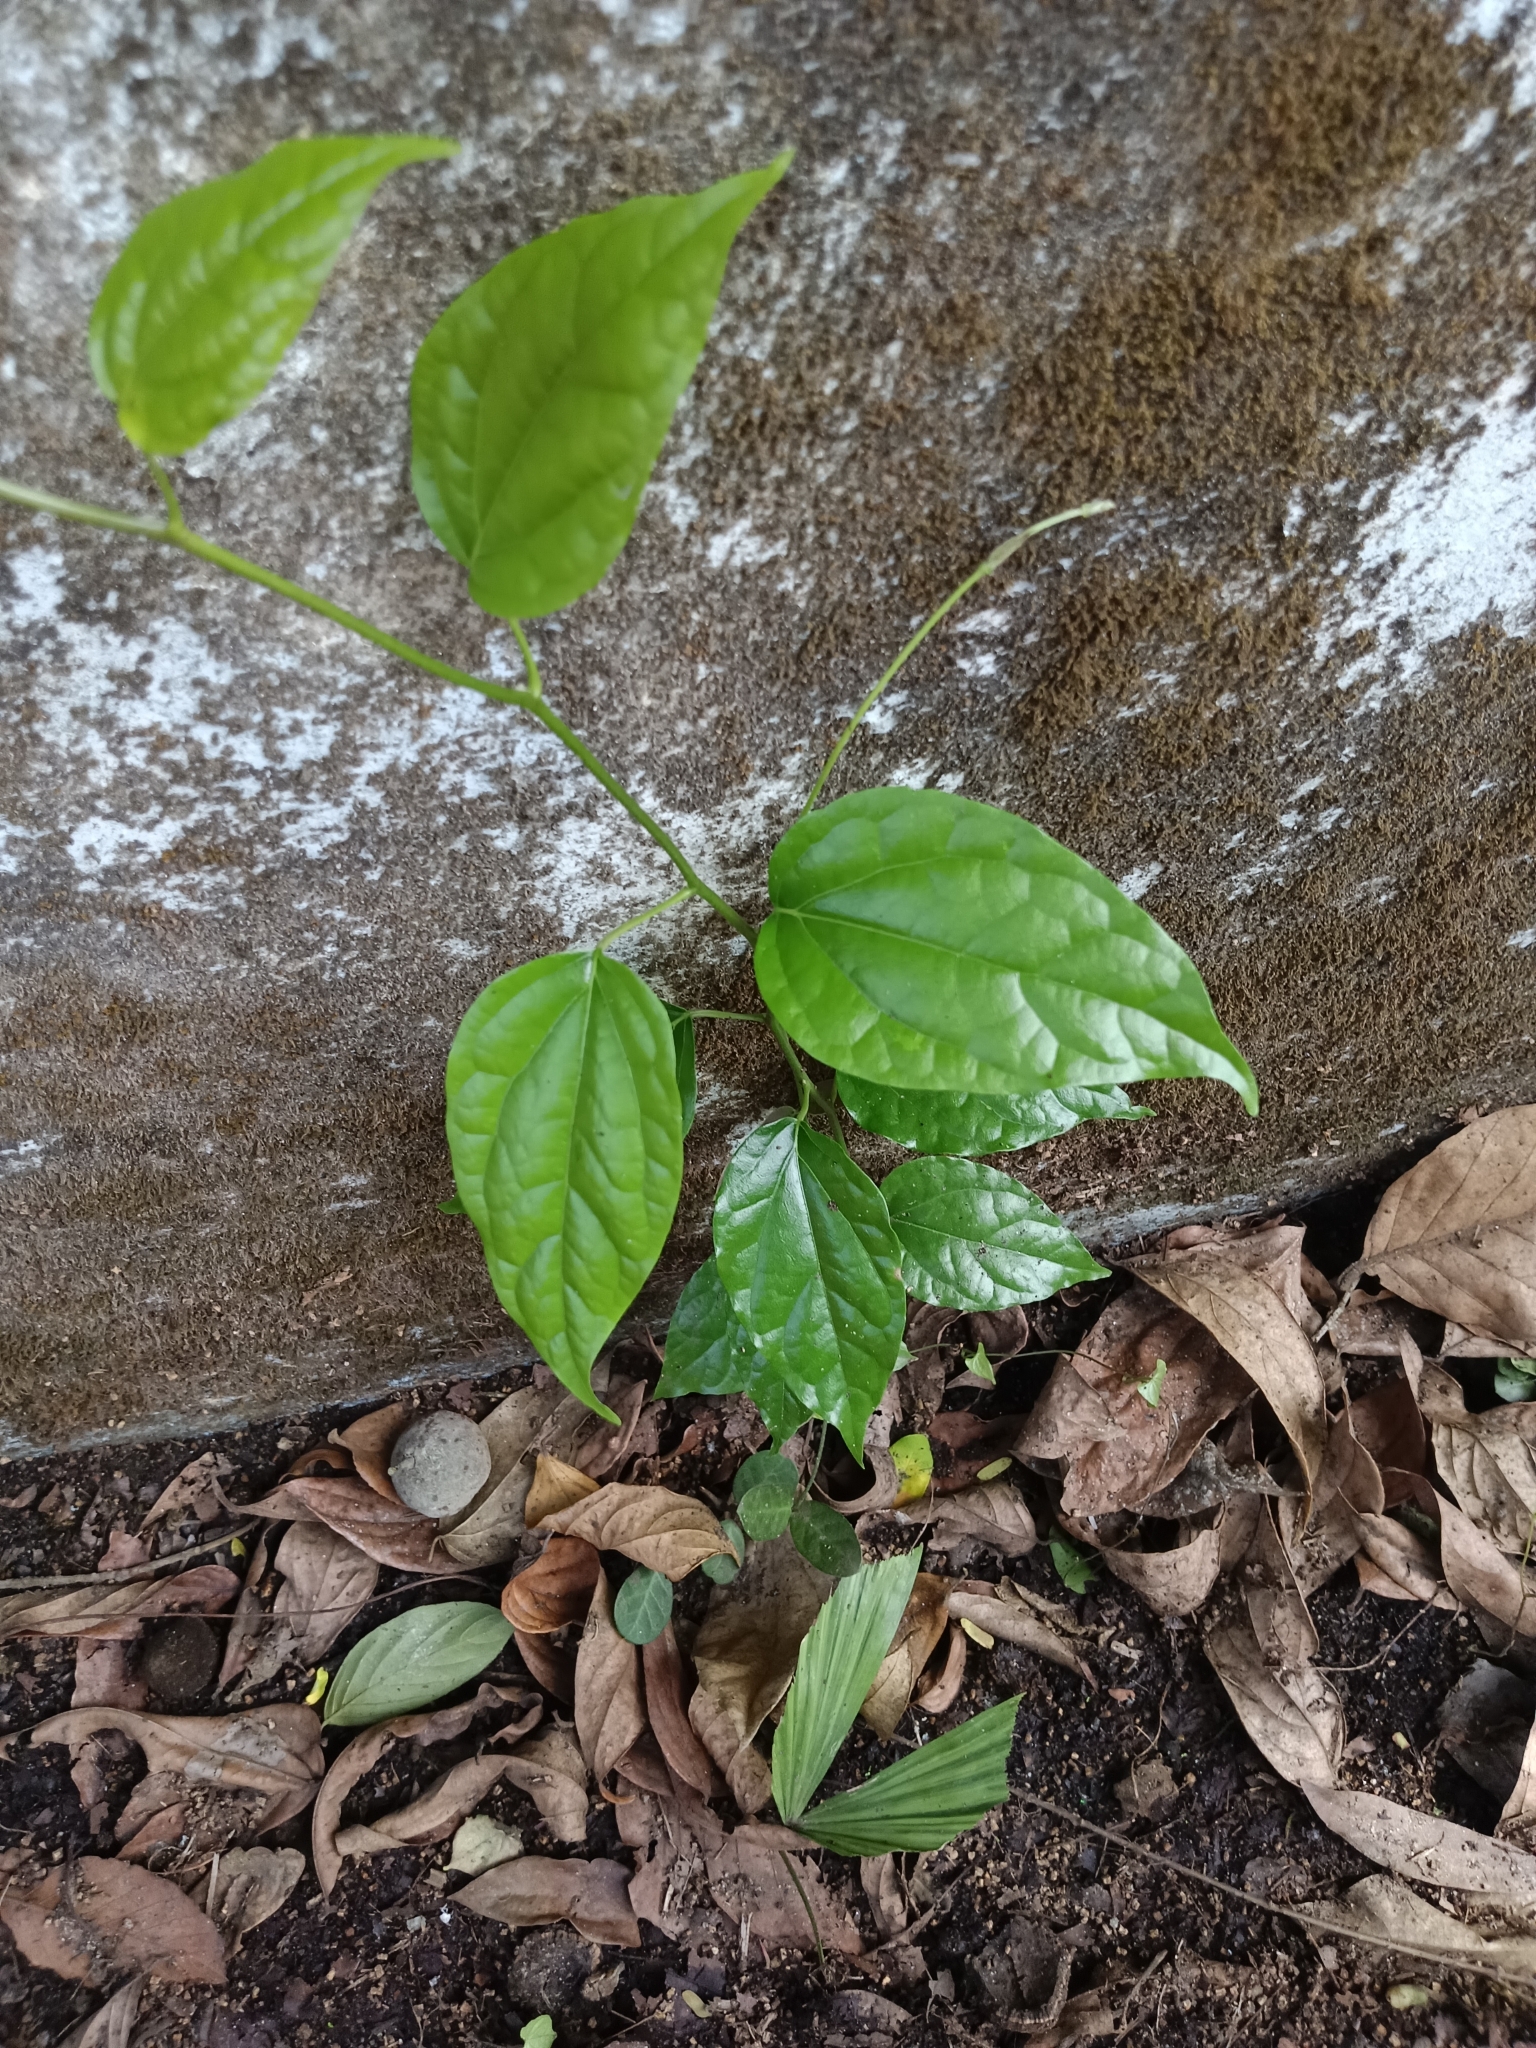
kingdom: Plantae
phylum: Tracheophyta
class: Magnoliopsida
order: Ranunculales
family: Menispermaceae
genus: Tiliacora
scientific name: Tiliacora acuminata
